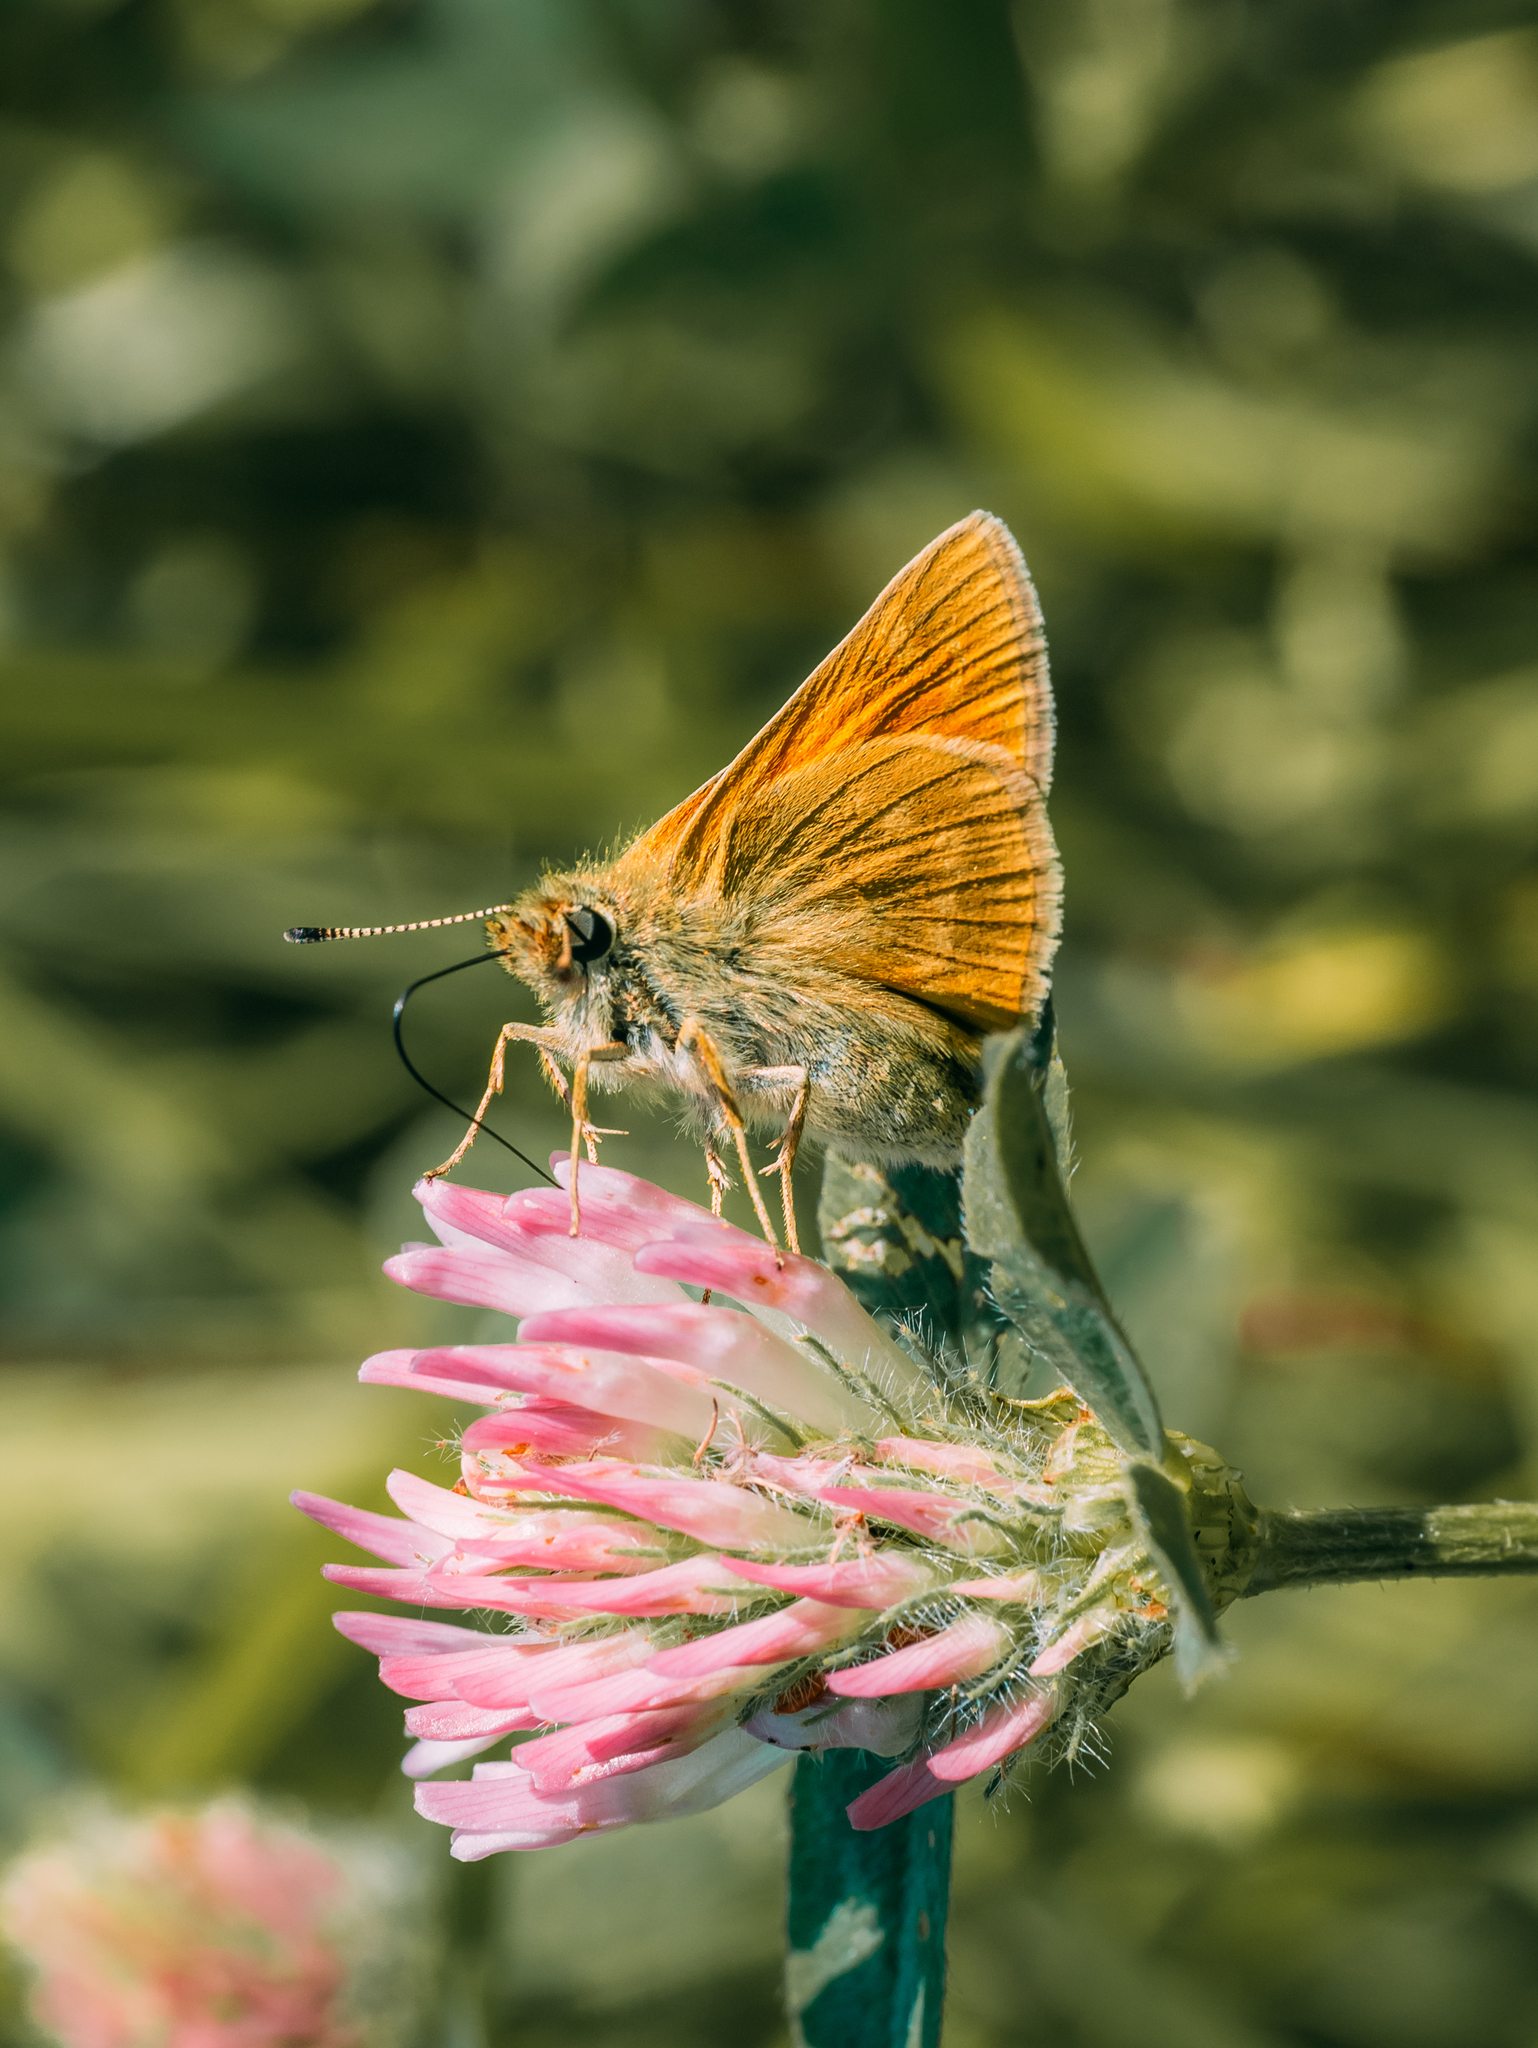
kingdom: Animalia
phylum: Arthropoda
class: Insecta
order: Lepidoptera
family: Hesperiidae
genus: Ochlodes
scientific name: Ochlodes venata
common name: Large skipper
